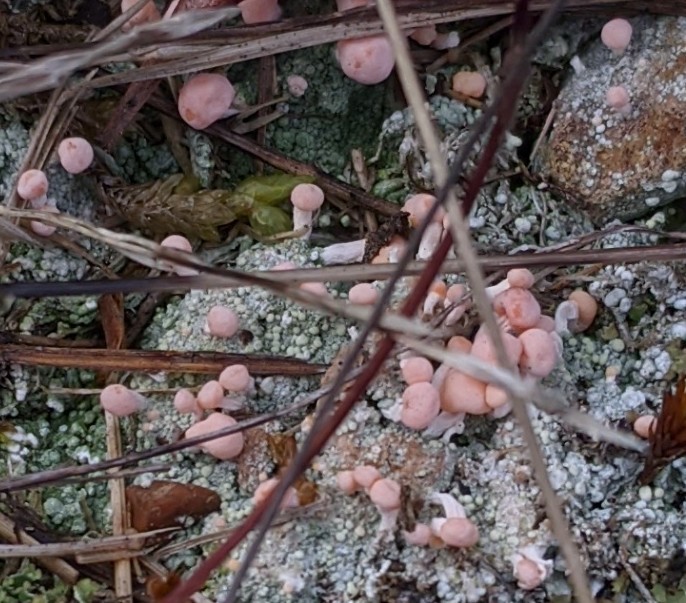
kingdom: Fungi
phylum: Ascomycota
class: Lecanoromycetes
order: Pertusariales
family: Icmadophilaceae
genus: Dibaeis
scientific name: Dibaeis baeomyces
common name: Pink earth lichen
